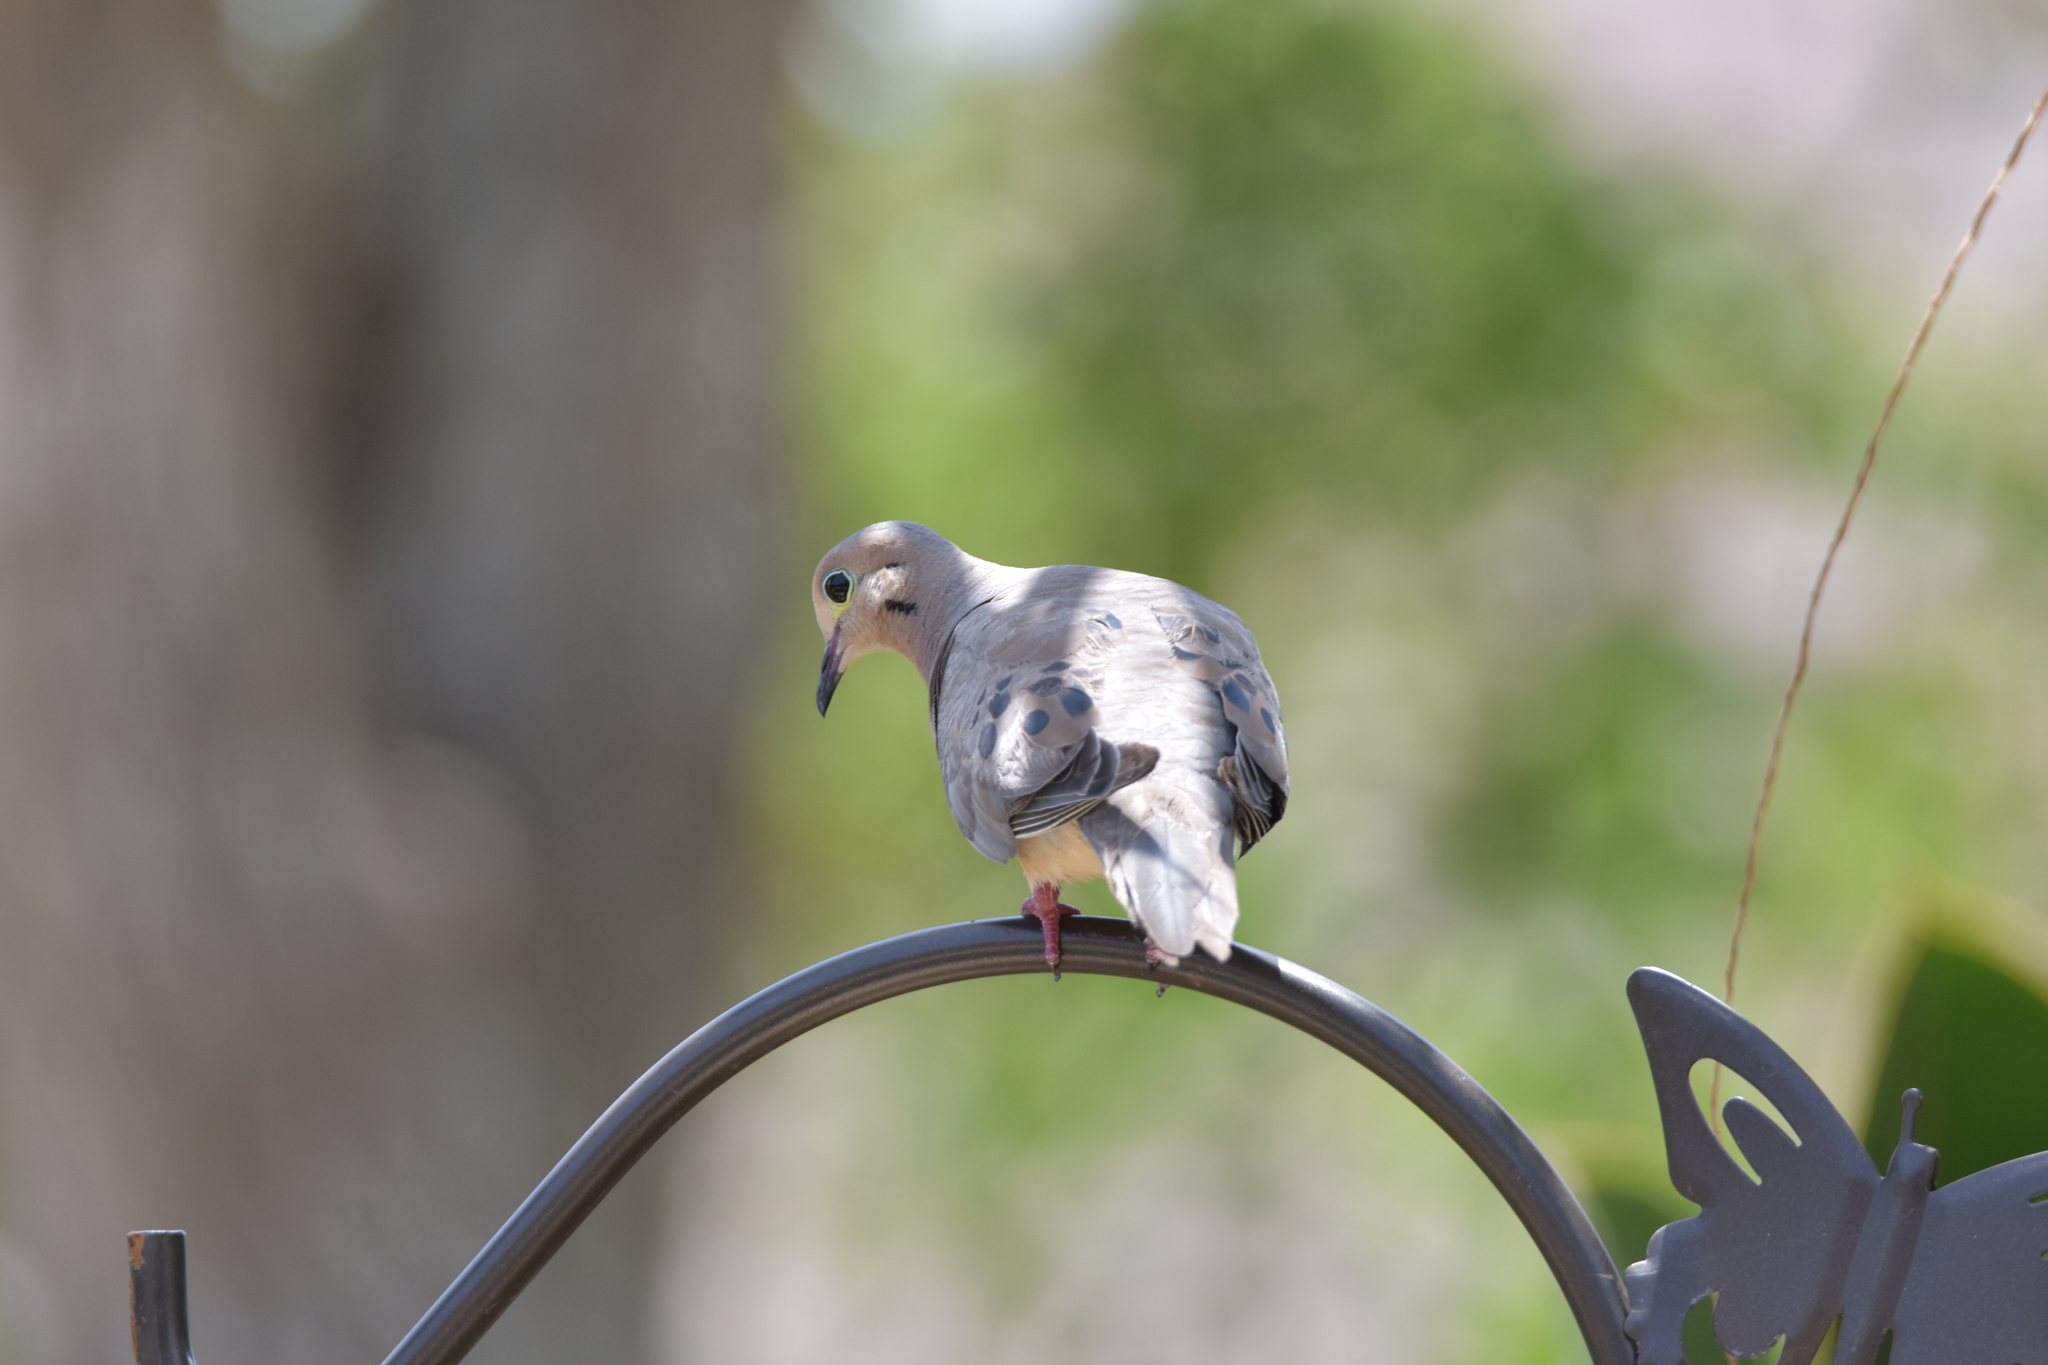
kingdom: Animalia
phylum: Chordata
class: Aves
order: Columbiformes
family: Columbidae
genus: Zenaida
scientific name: Zenaida macroura
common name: Mourning dove
